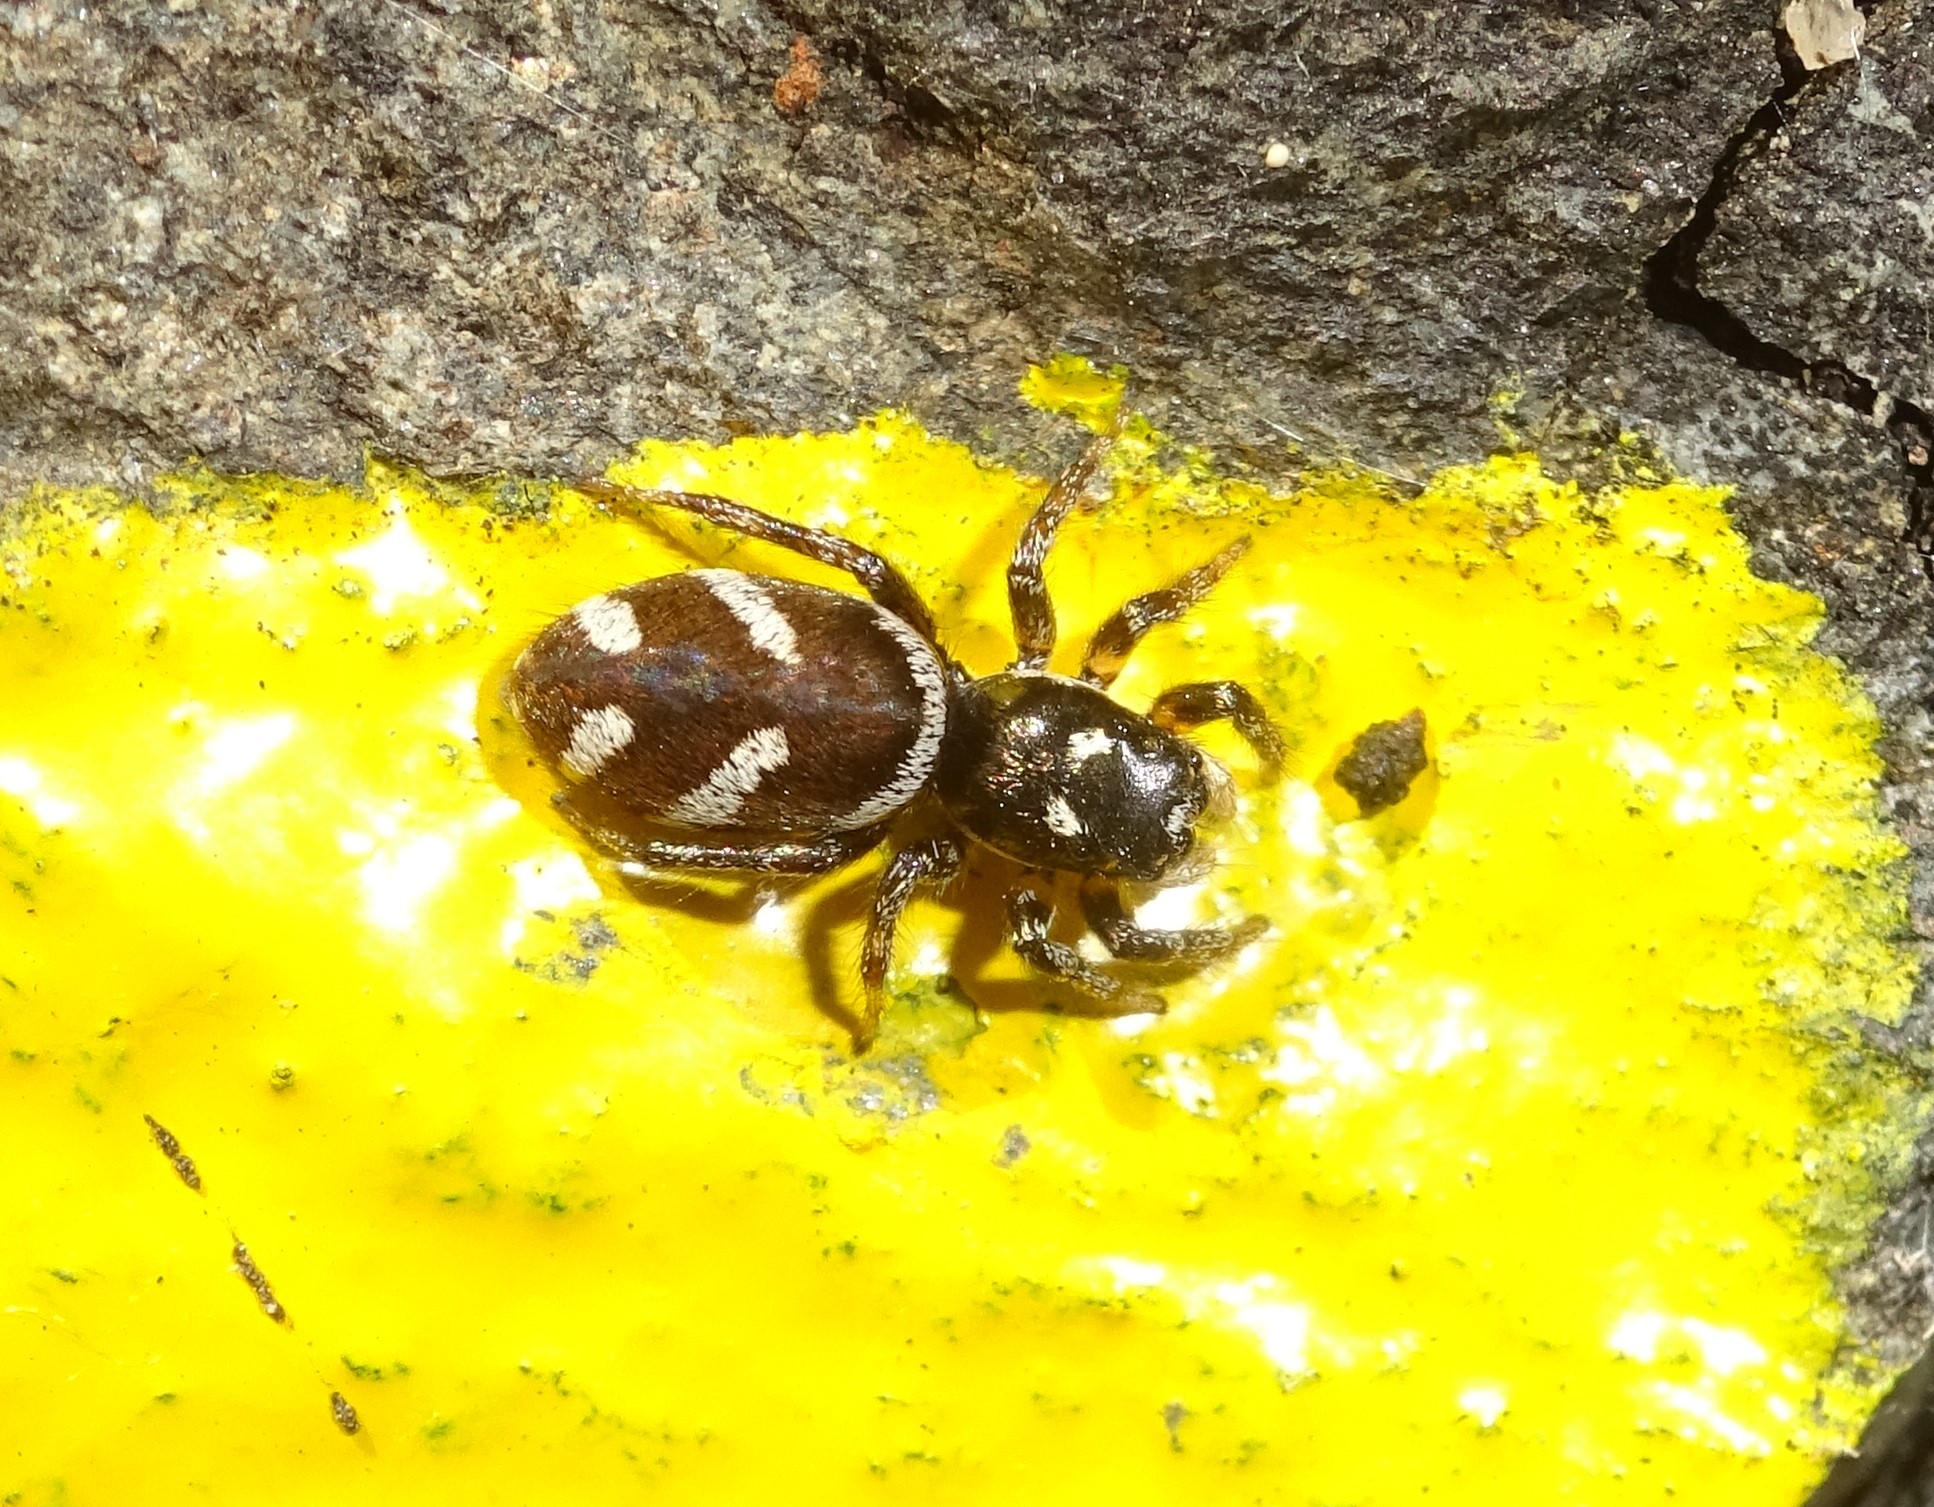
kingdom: Animalia
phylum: Arthropoda
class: Arachnida
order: Araneae
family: Salticidae
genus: Salticus
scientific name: Salticus scenicus
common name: Zebra jumper
